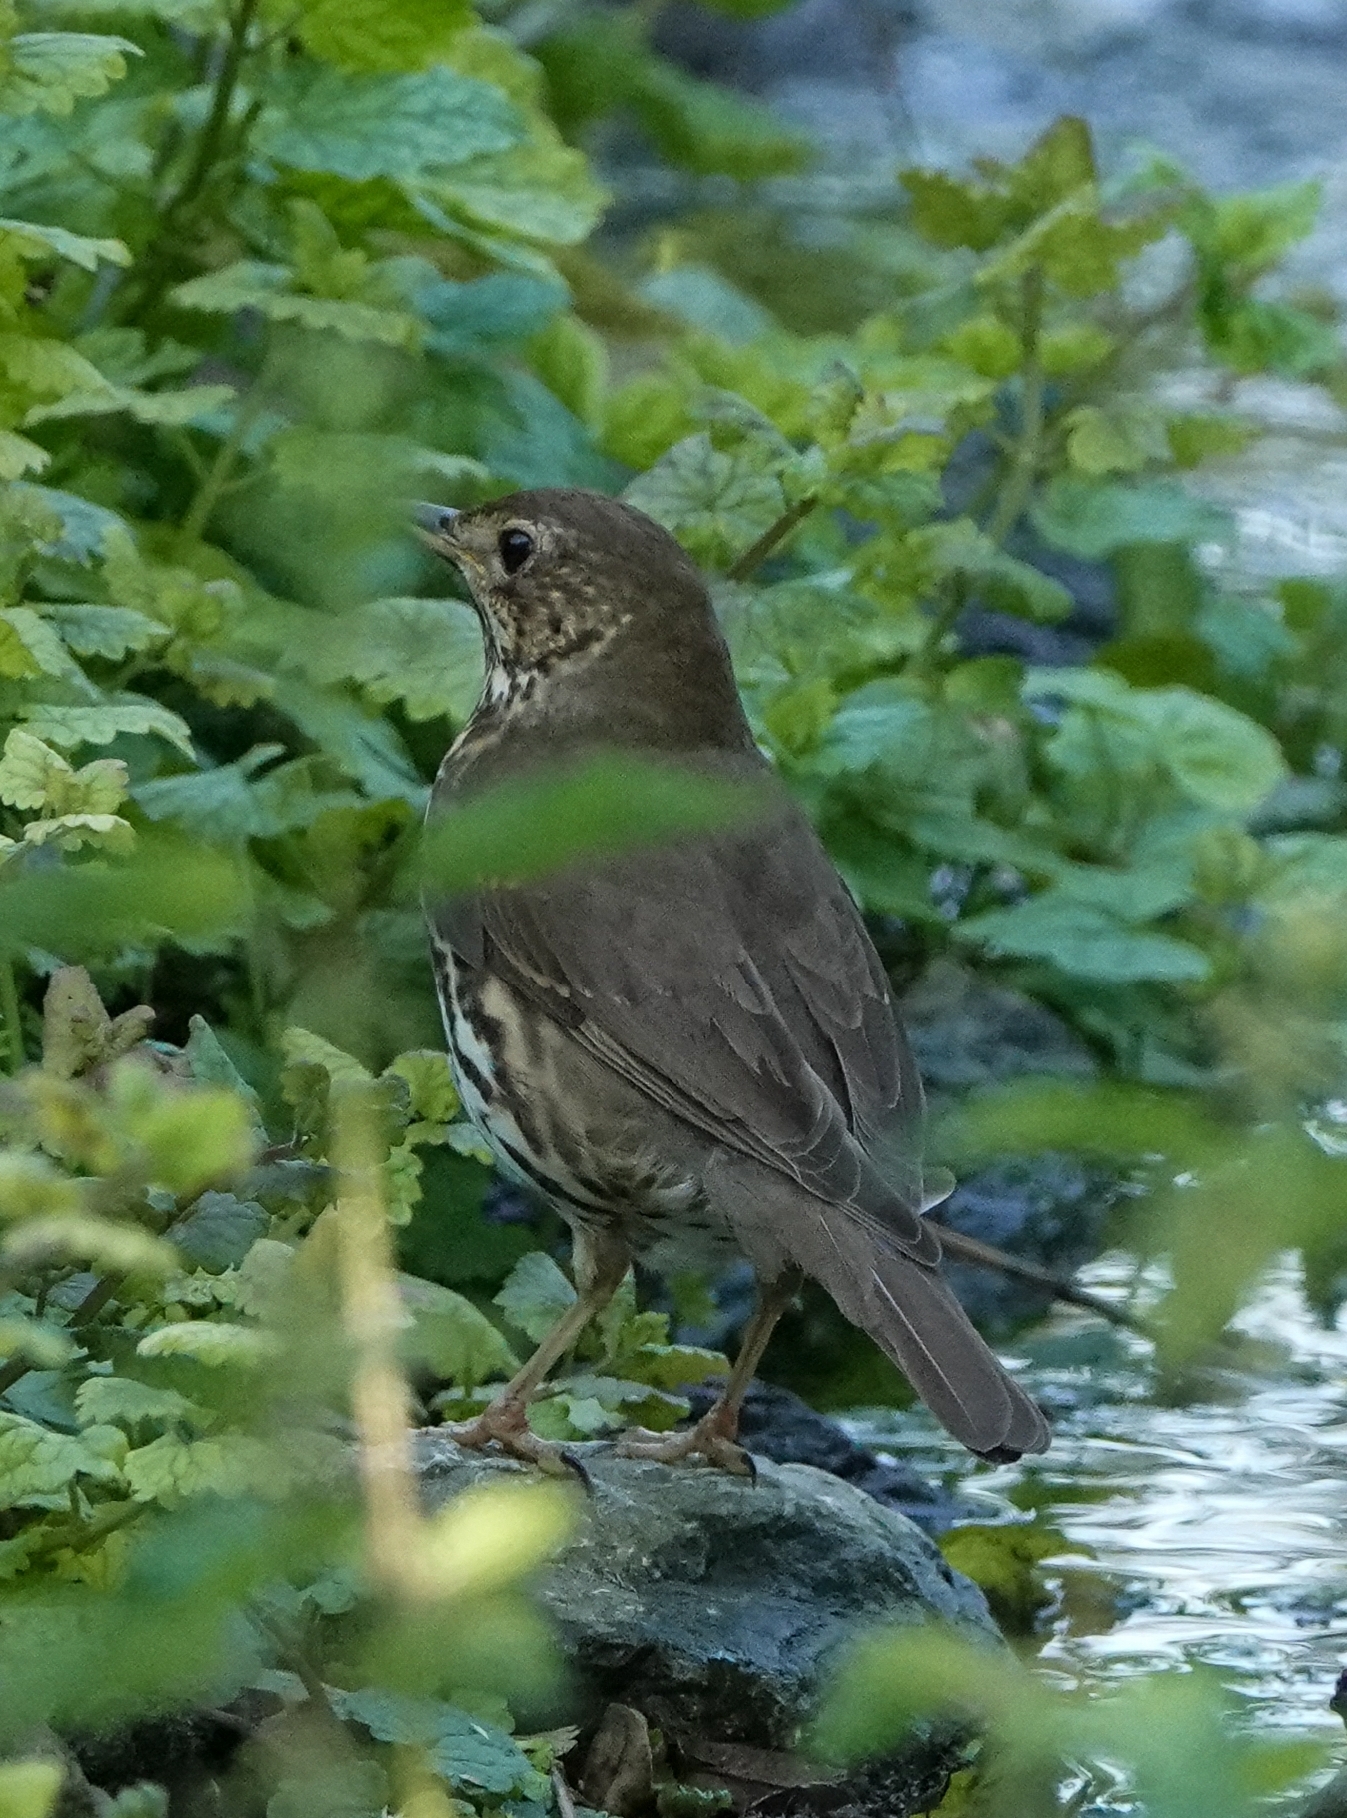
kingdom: Animalia
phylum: Chordata
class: Aves
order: Passeriformes
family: Turdidae
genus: Turdus
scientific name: Turdus philomelos
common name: Song thrush
